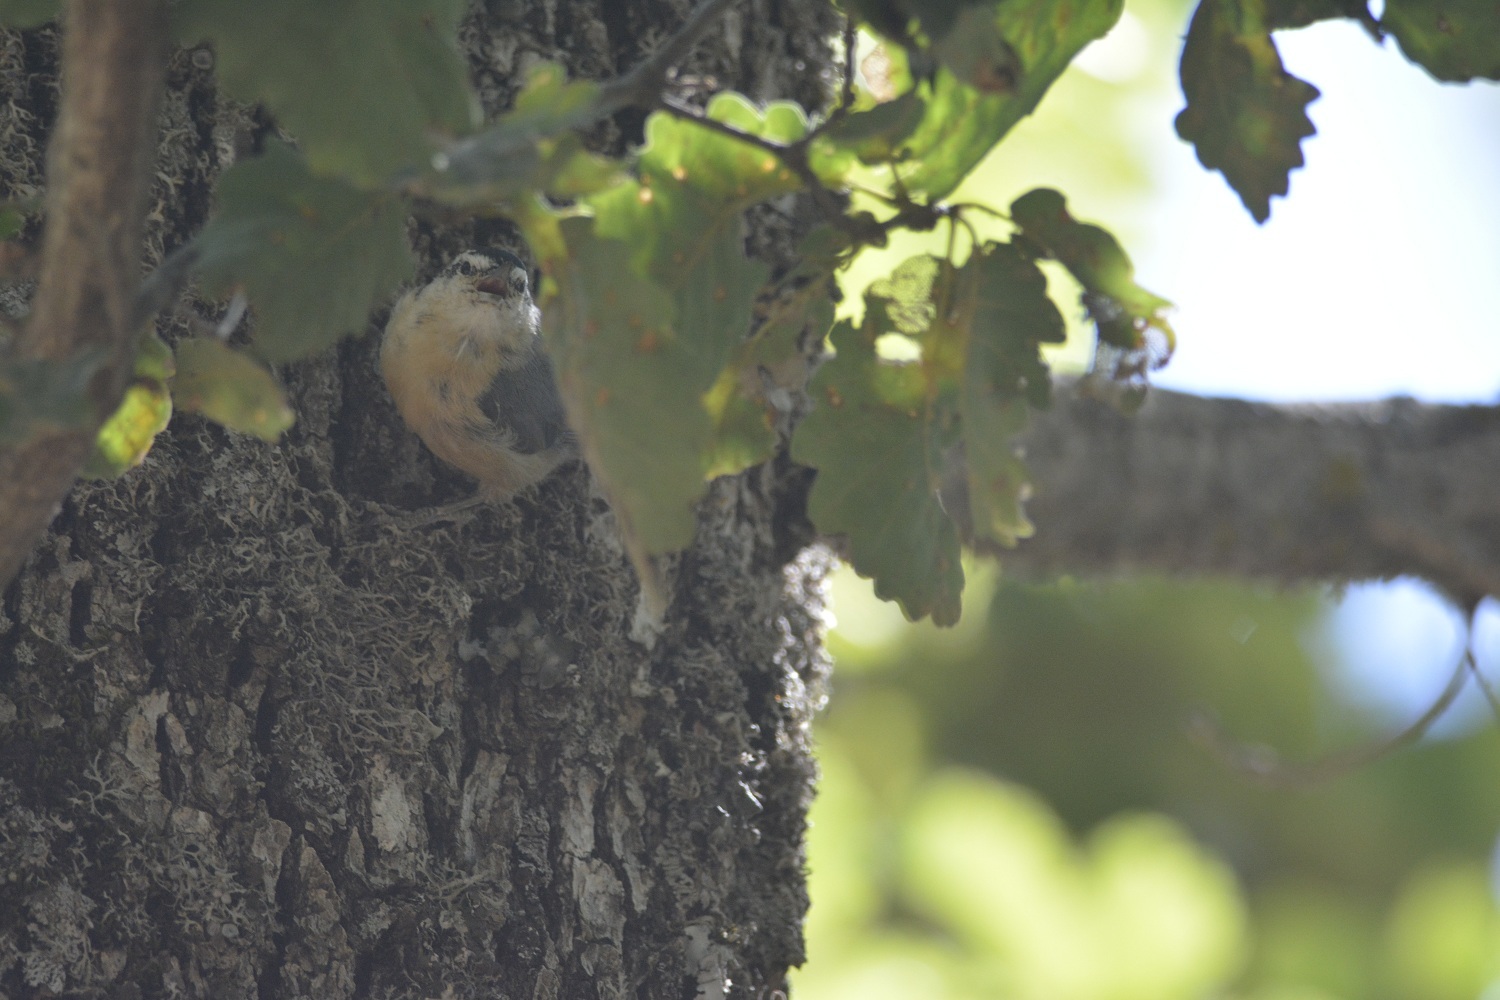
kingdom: Animalia
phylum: Chordata
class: Aves
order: Passeriformes
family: Sittidae
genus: Sitta
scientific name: Sitta ledanti
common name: Algerian nuthatch
